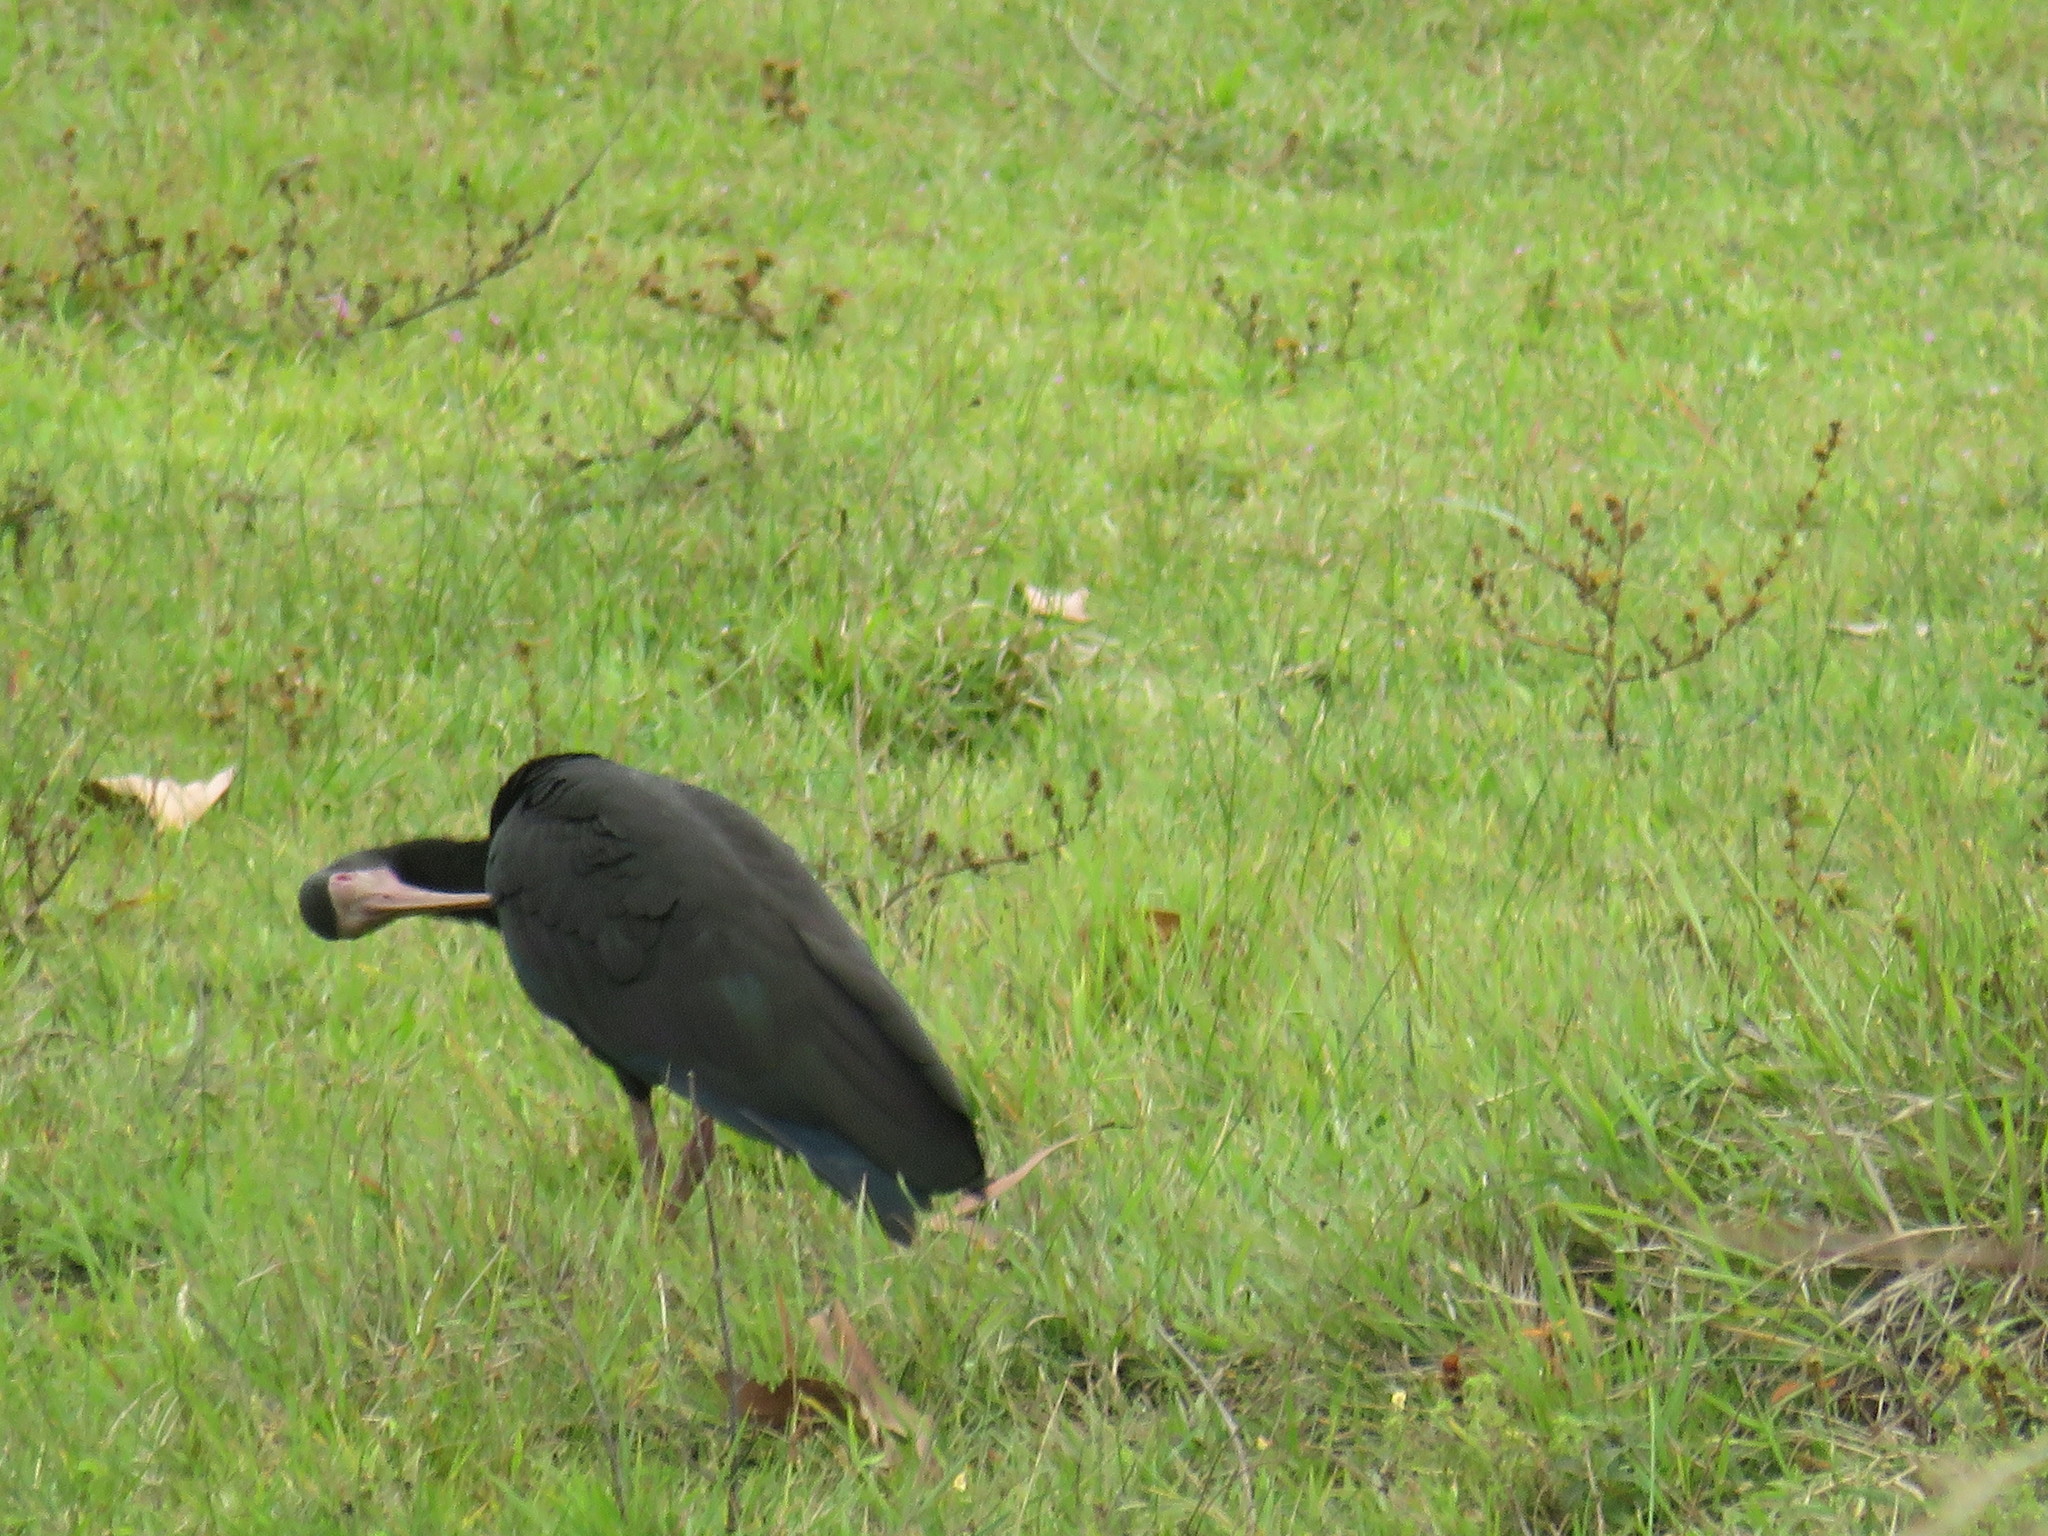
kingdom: Animalia
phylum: Chordata
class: Aves
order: Pelecaniformes
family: Threskiornithidae
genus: Phimosus
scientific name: Phimosus infuscatus
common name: Bare-faced ibis
